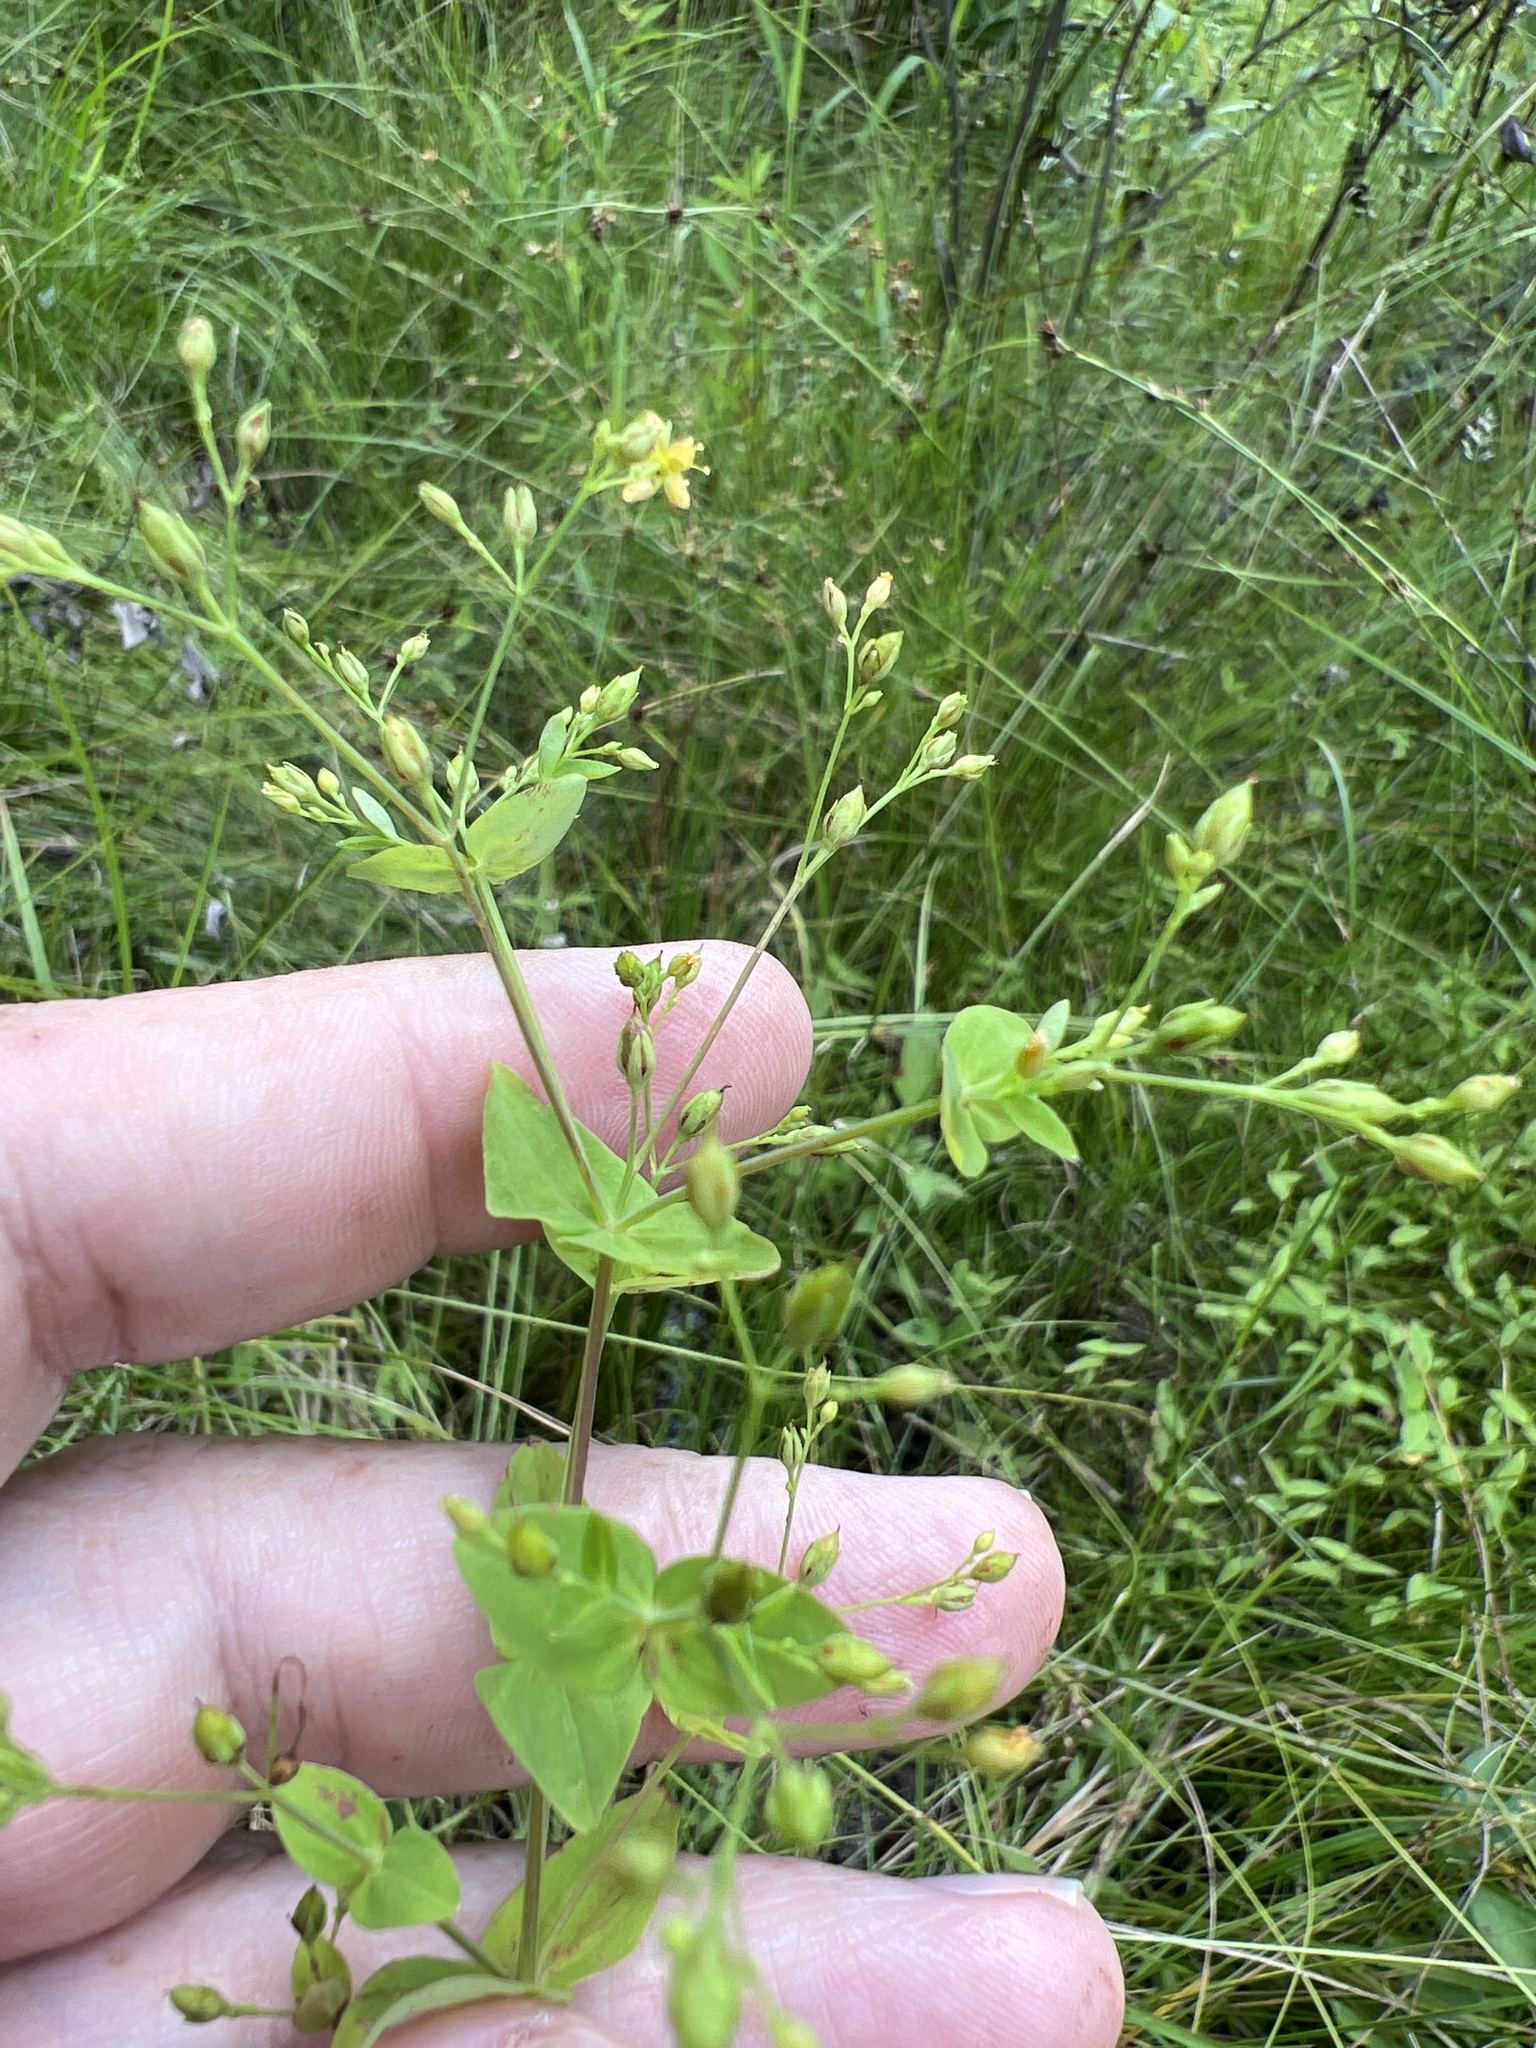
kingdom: Plantae
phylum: Tracheophyta
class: Magnoliopsida
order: Malpighiales
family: Hypericaceae
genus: Hypericum
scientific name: Hypericum mutilum
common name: Dwarf st. john's-wort
